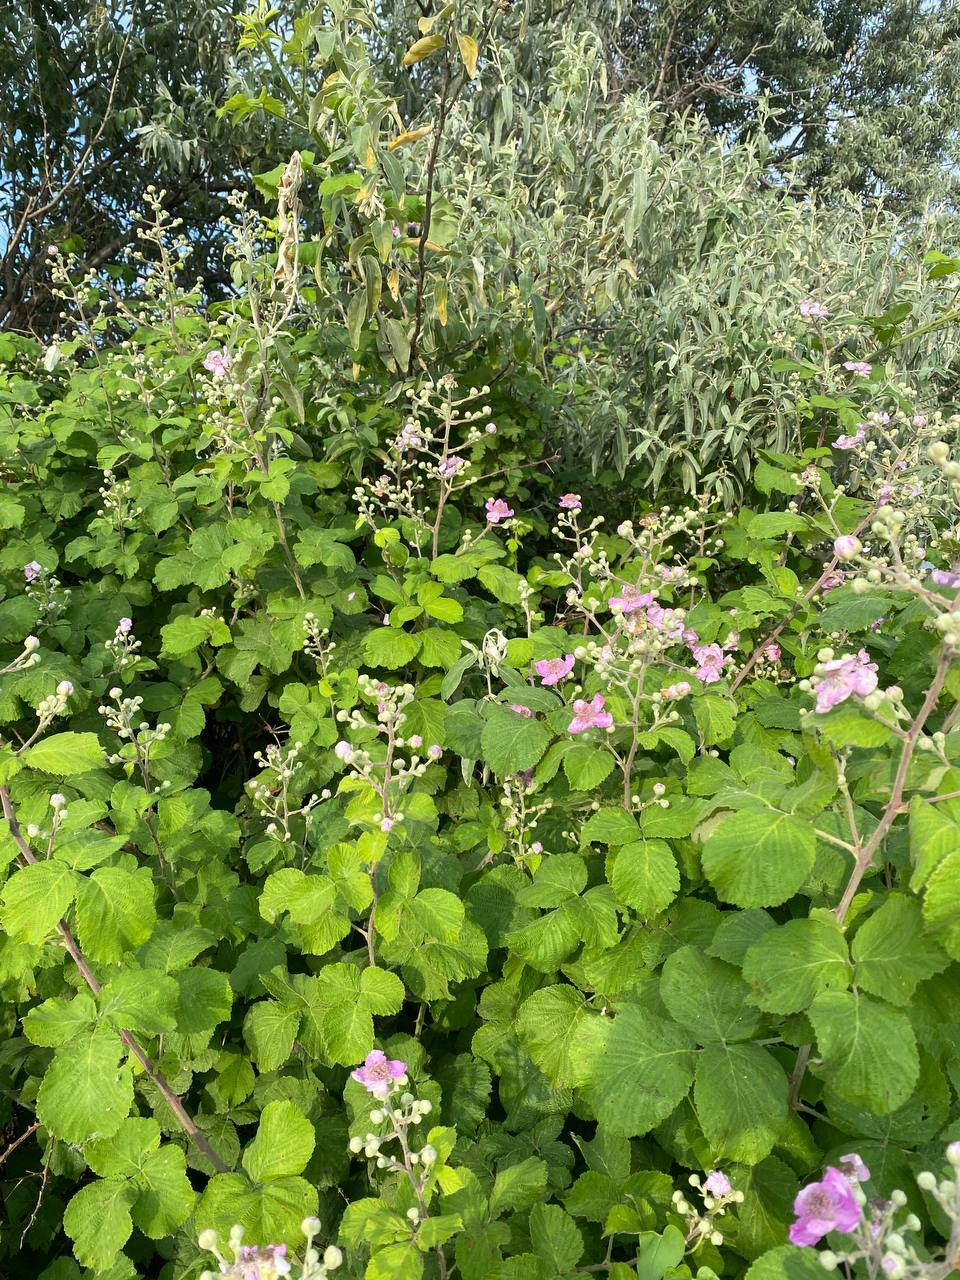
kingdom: Plantae
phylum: Tracheophyta
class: Magnoliopsida
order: Rosales
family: Rosaceae
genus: Rubus
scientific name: Rubus sanctus
